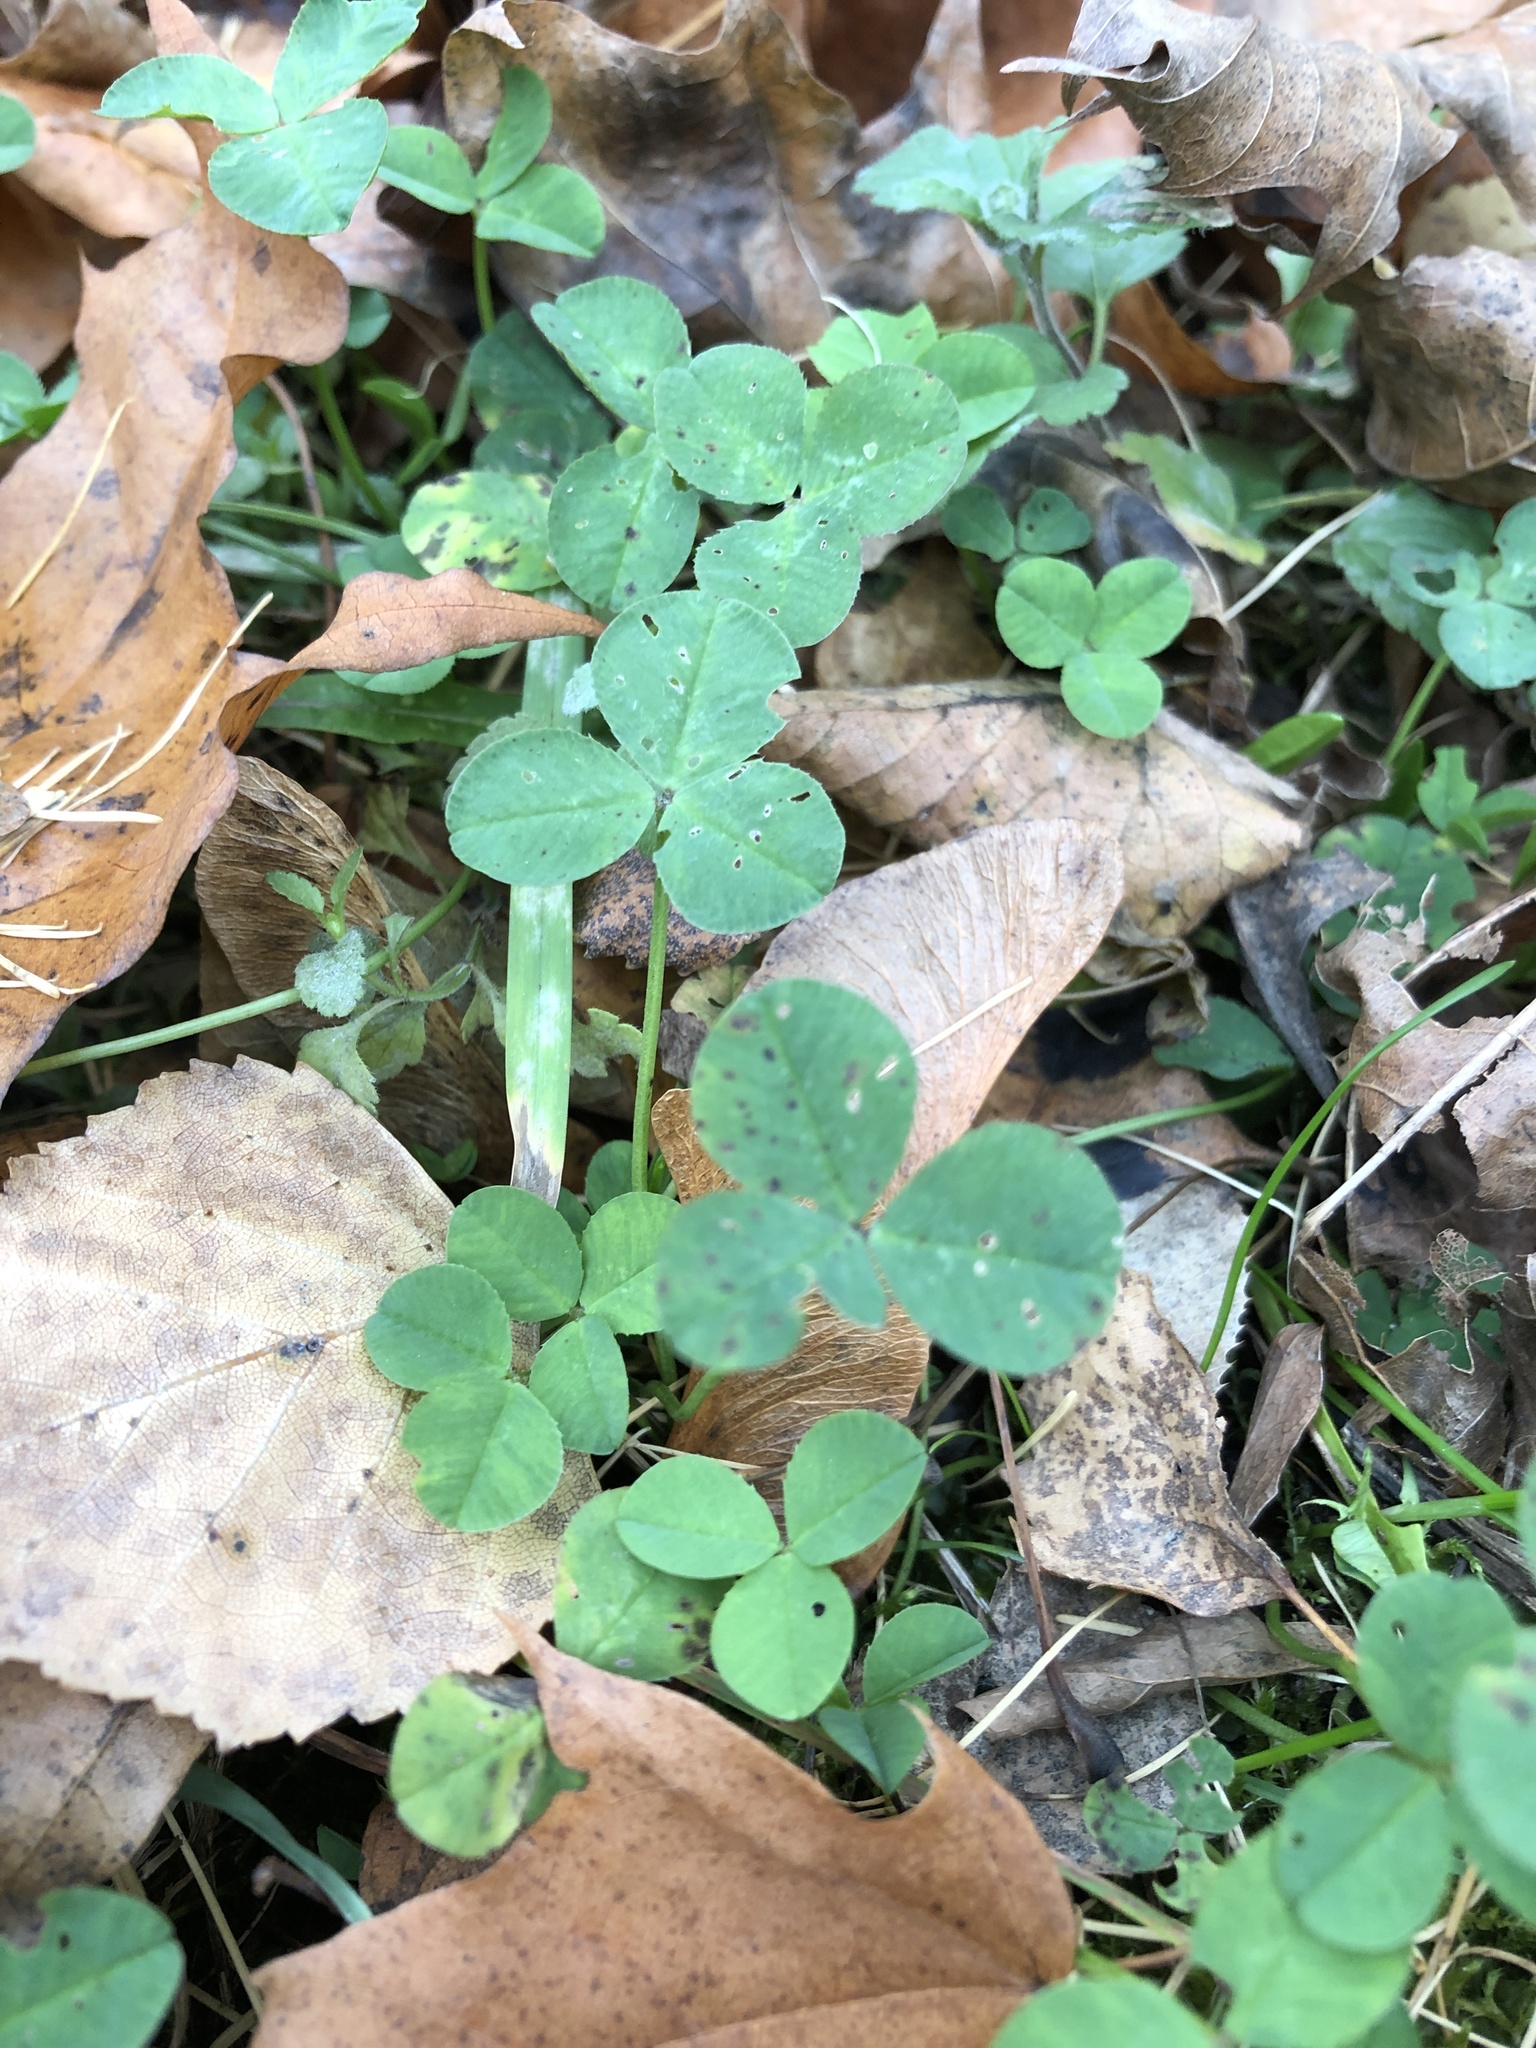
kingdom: Plantae
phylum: Tracheophyta
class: Magnoliopsida
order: Fabales
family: Fabaceae
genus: Trifolium
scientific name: Trifolium repens
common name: White clover
